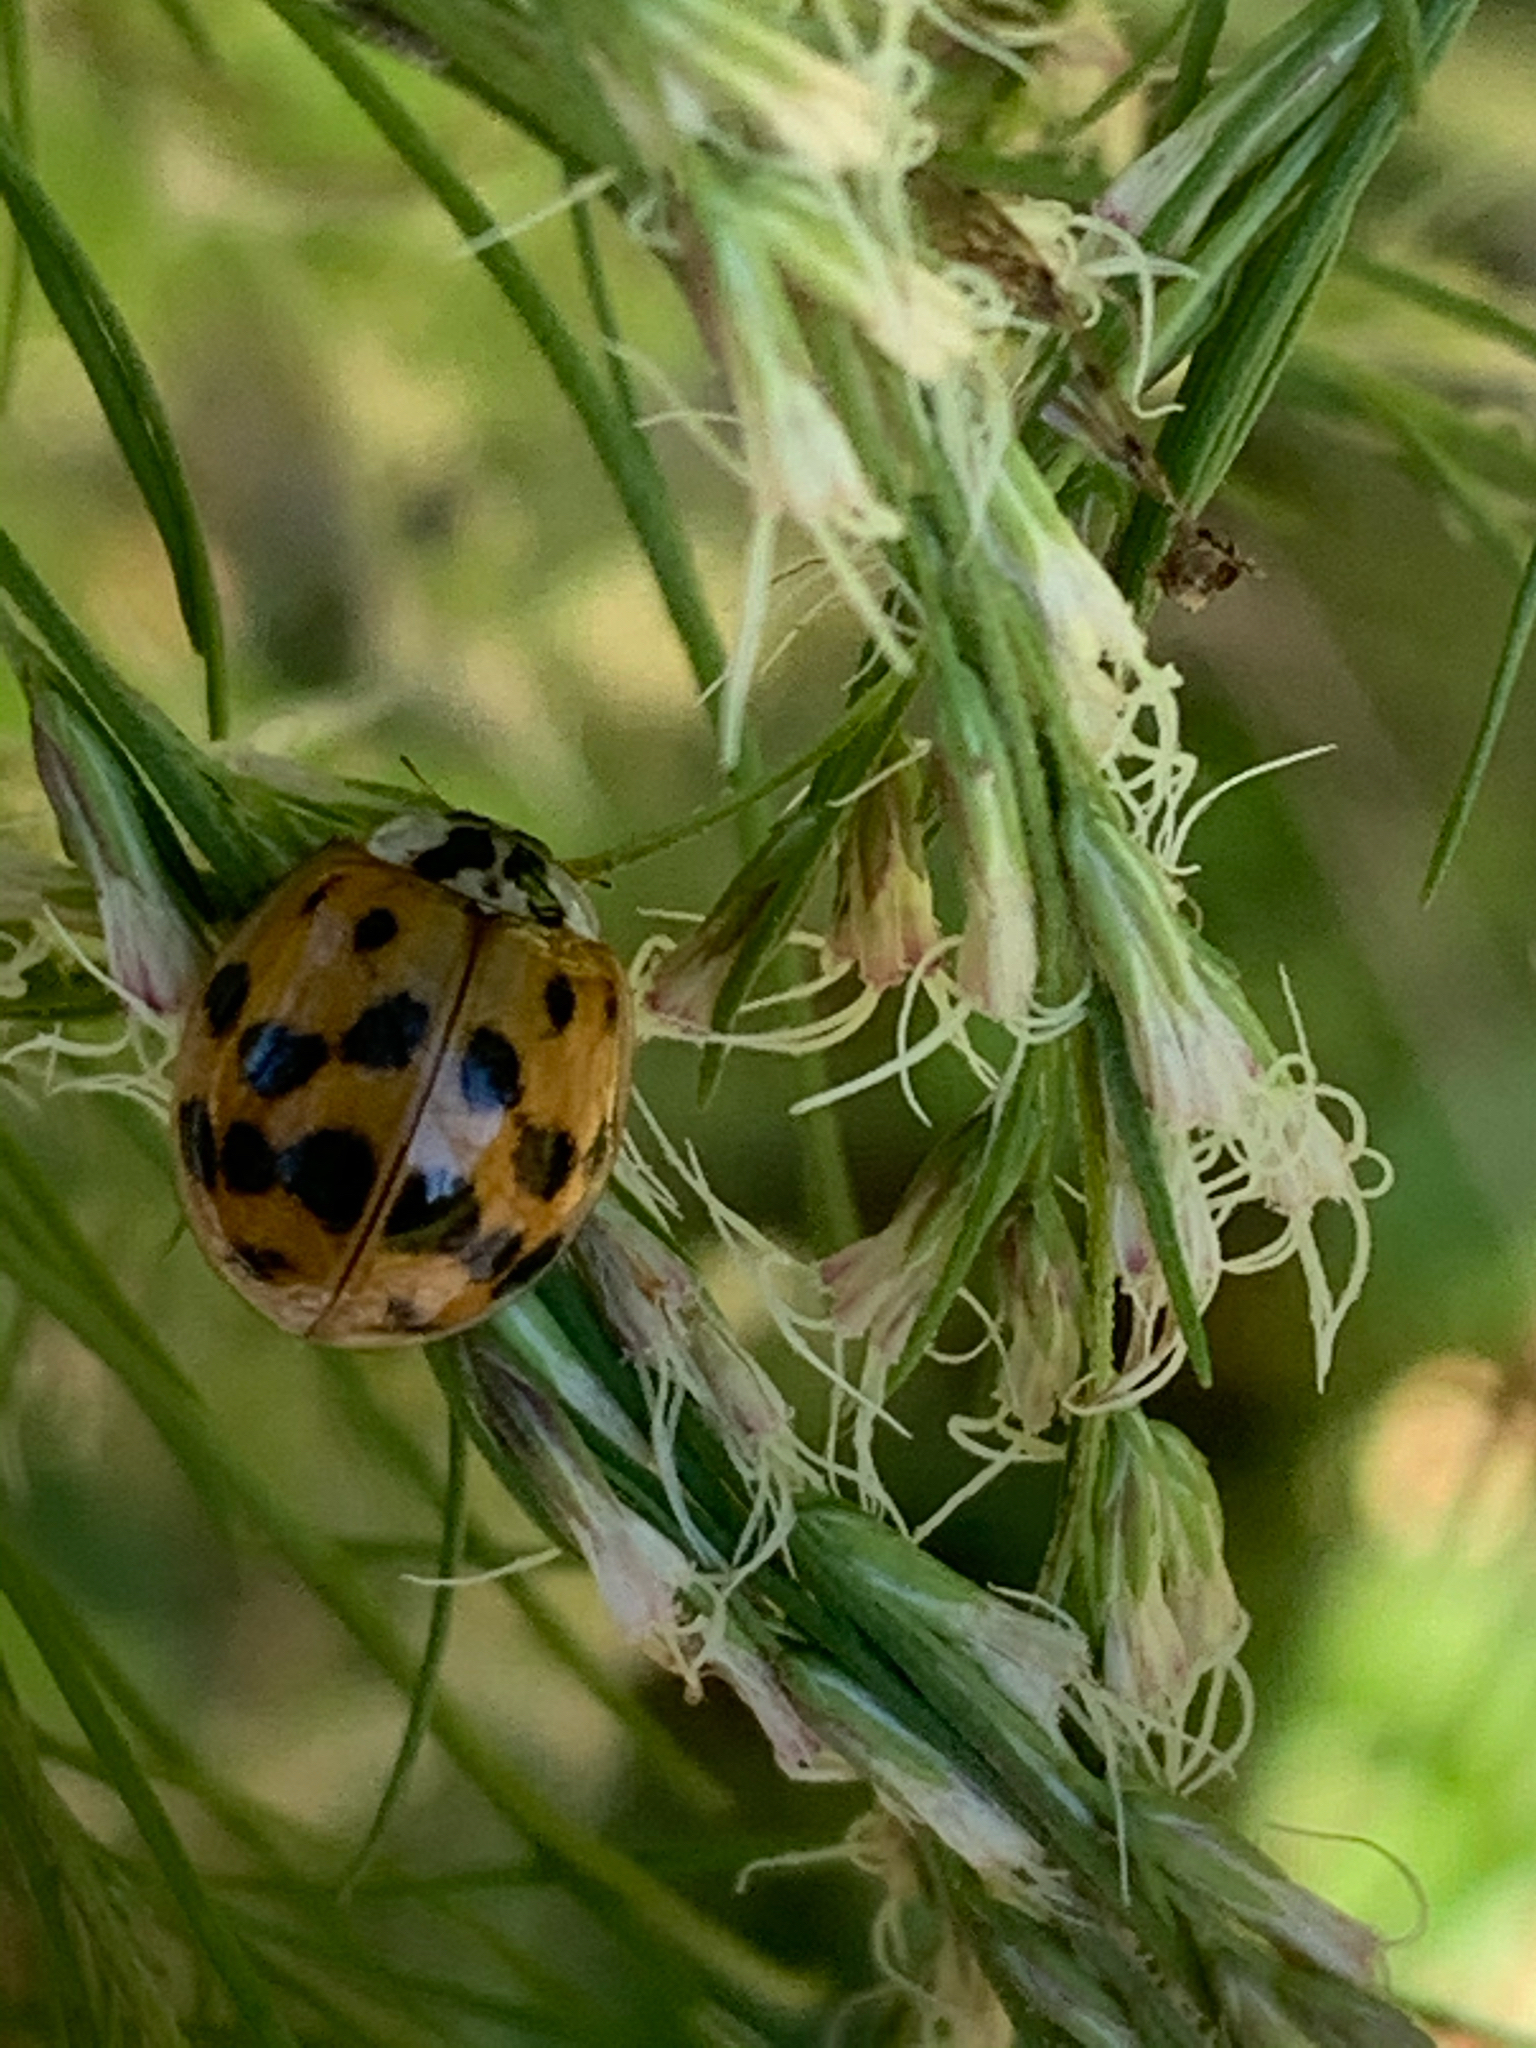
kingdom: Animalia
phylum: Arthropoda
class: Insecta
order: Coleoptera
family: Coccinellidae
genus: Harmonia
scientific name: Harmonia axyridis
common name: Harlequin ladybird
